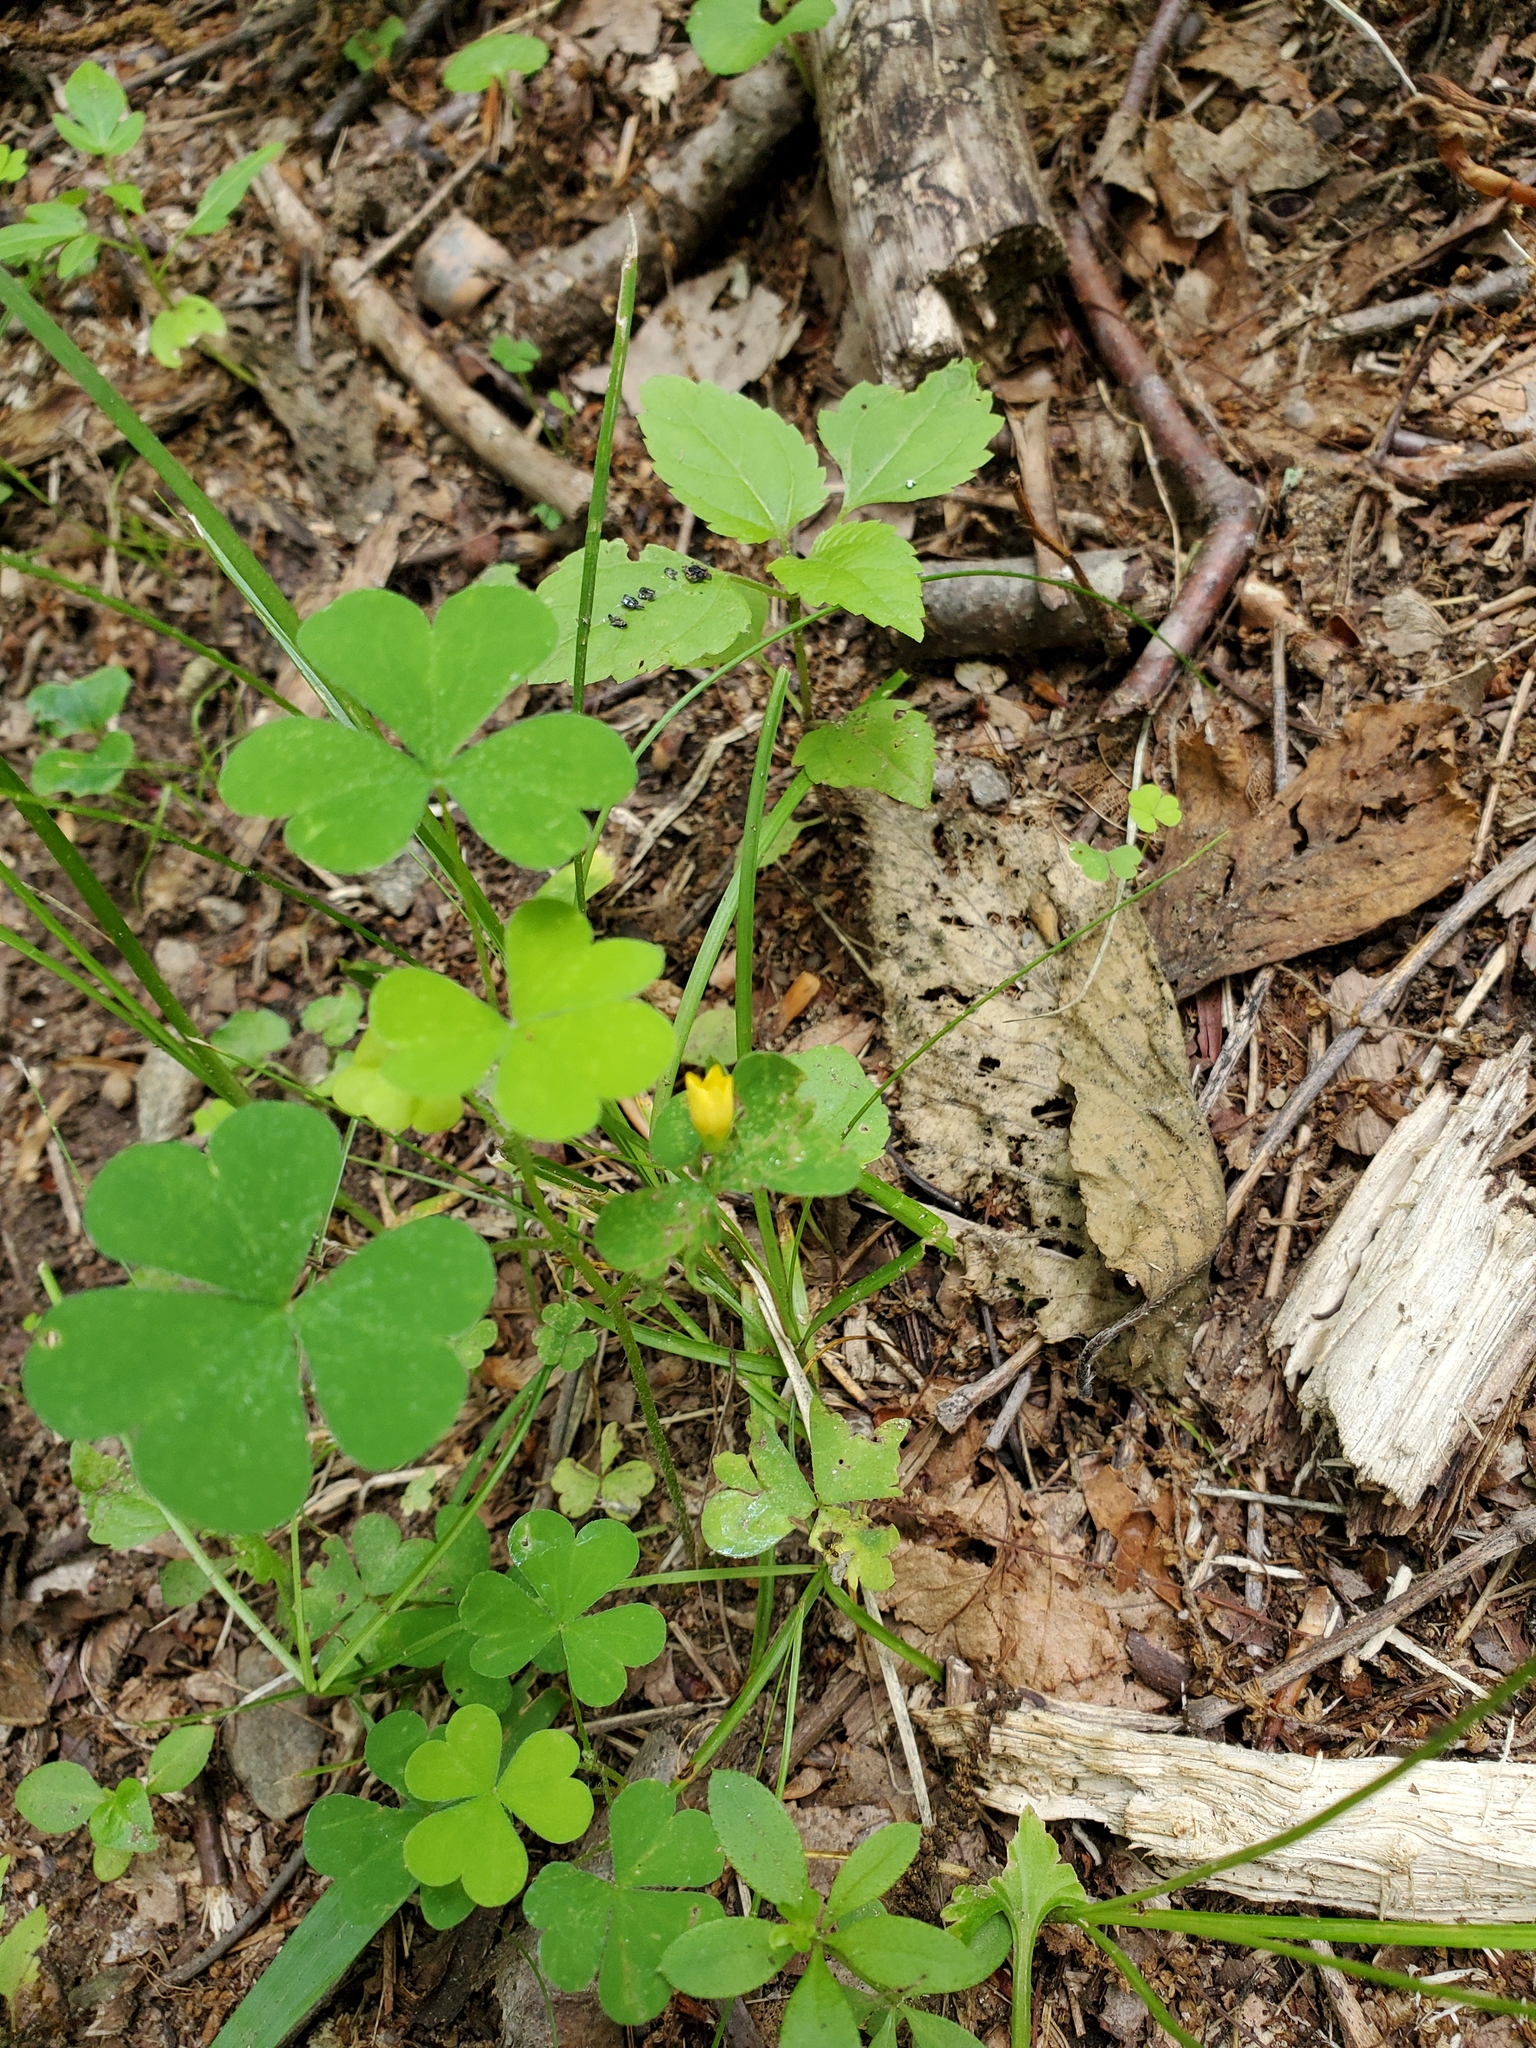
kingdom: Plantae
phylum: Tracheophyta
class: Magnoliopsida
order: Oxalidales
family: Oxalidaceae
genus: Oxalis
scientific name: Oxalis stricta
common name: Upright yellow-sorrel
